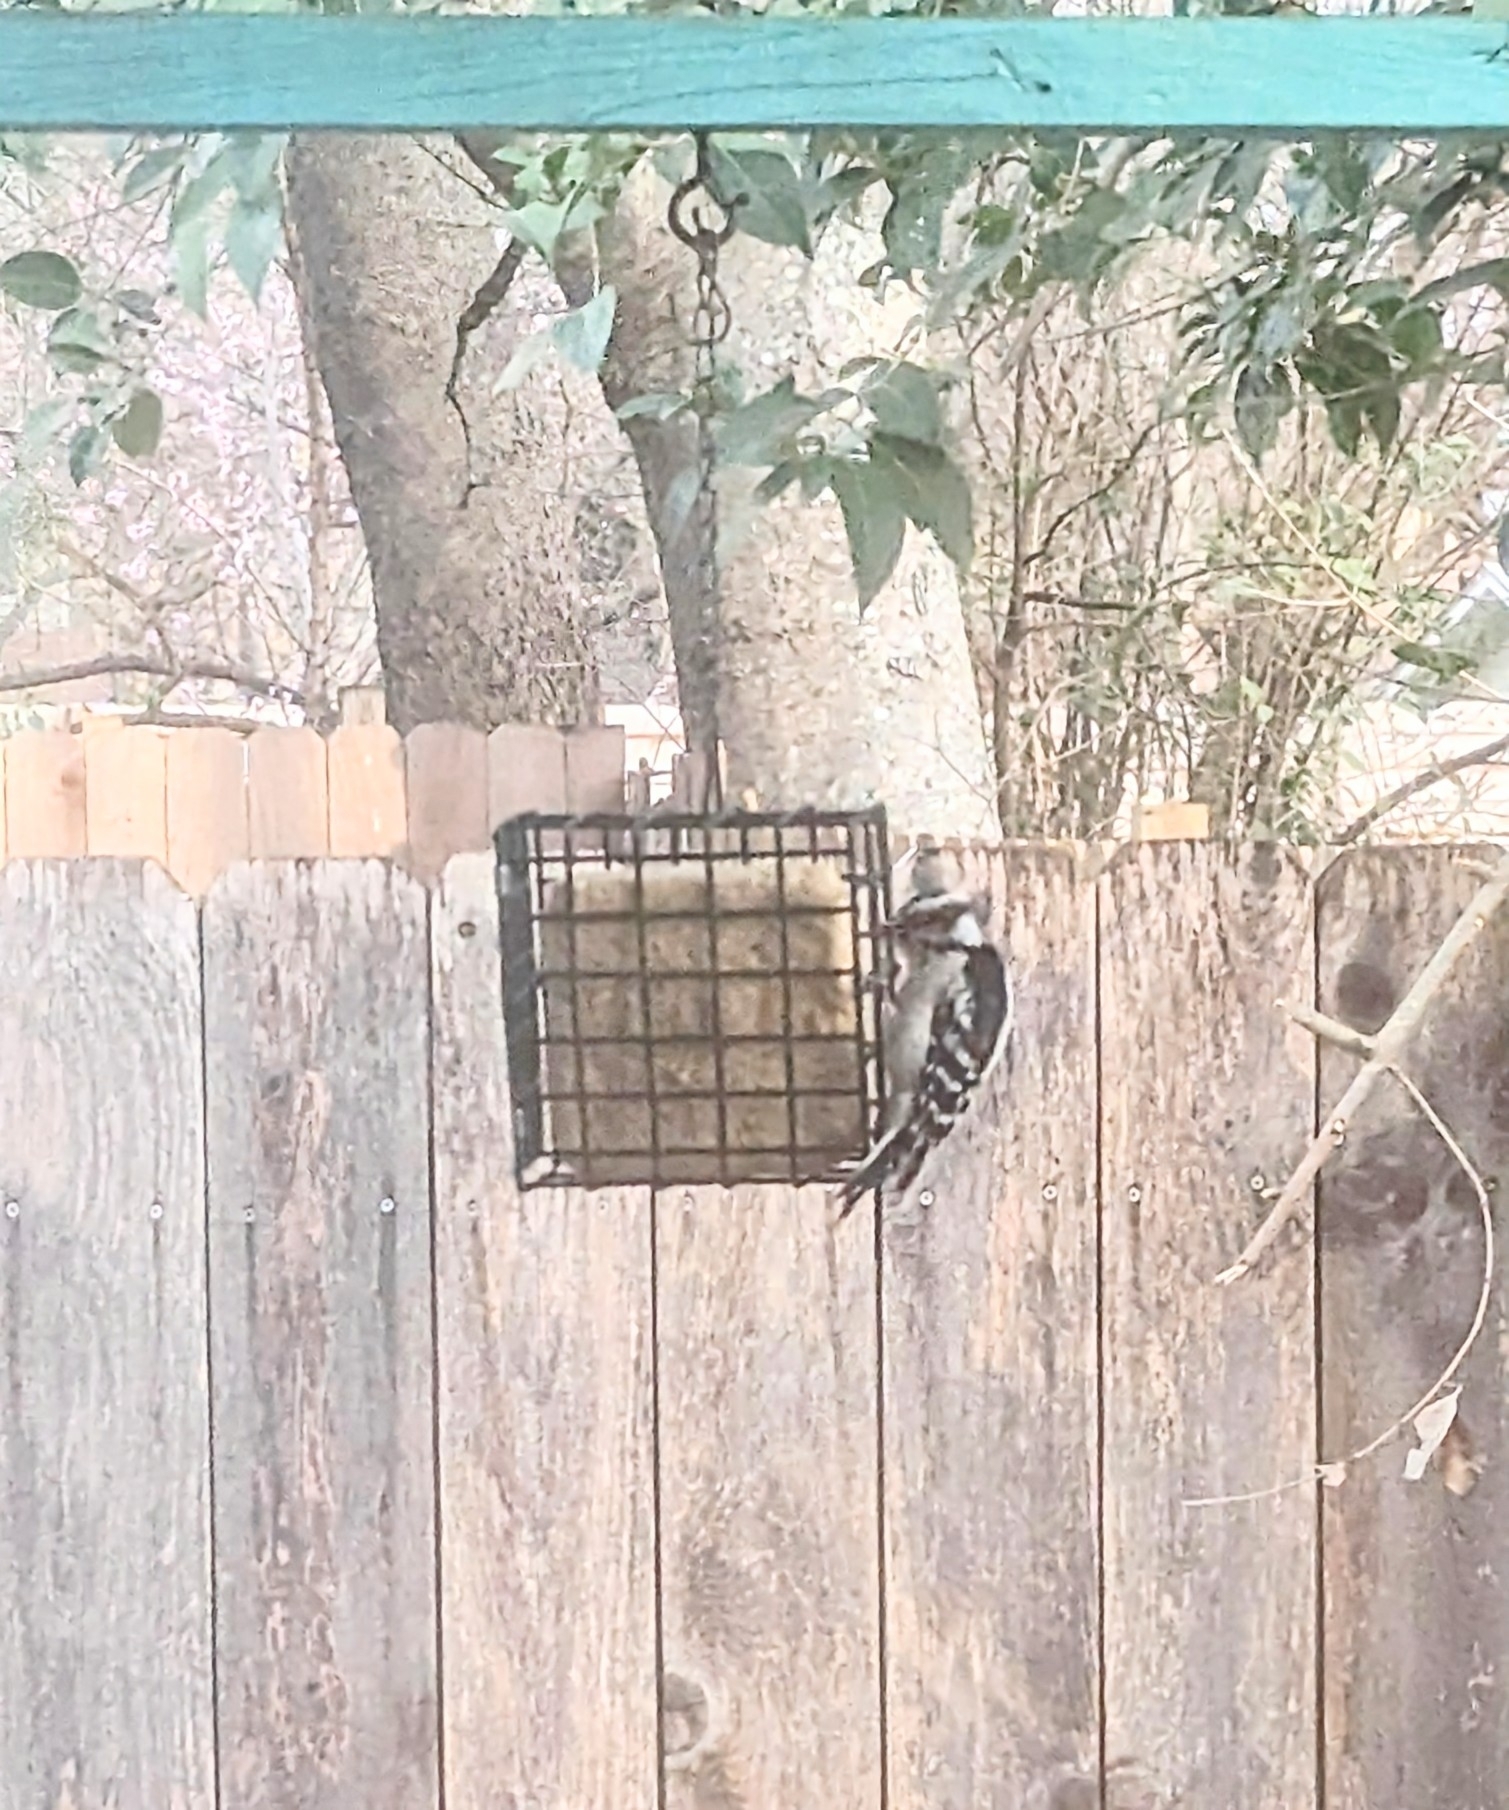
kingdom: Animalia
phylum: Chordata
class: Aves
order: Piciformes
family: Picidae
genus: Dryobates
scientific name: Dryobates pubescens
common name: Downy woodpecker
